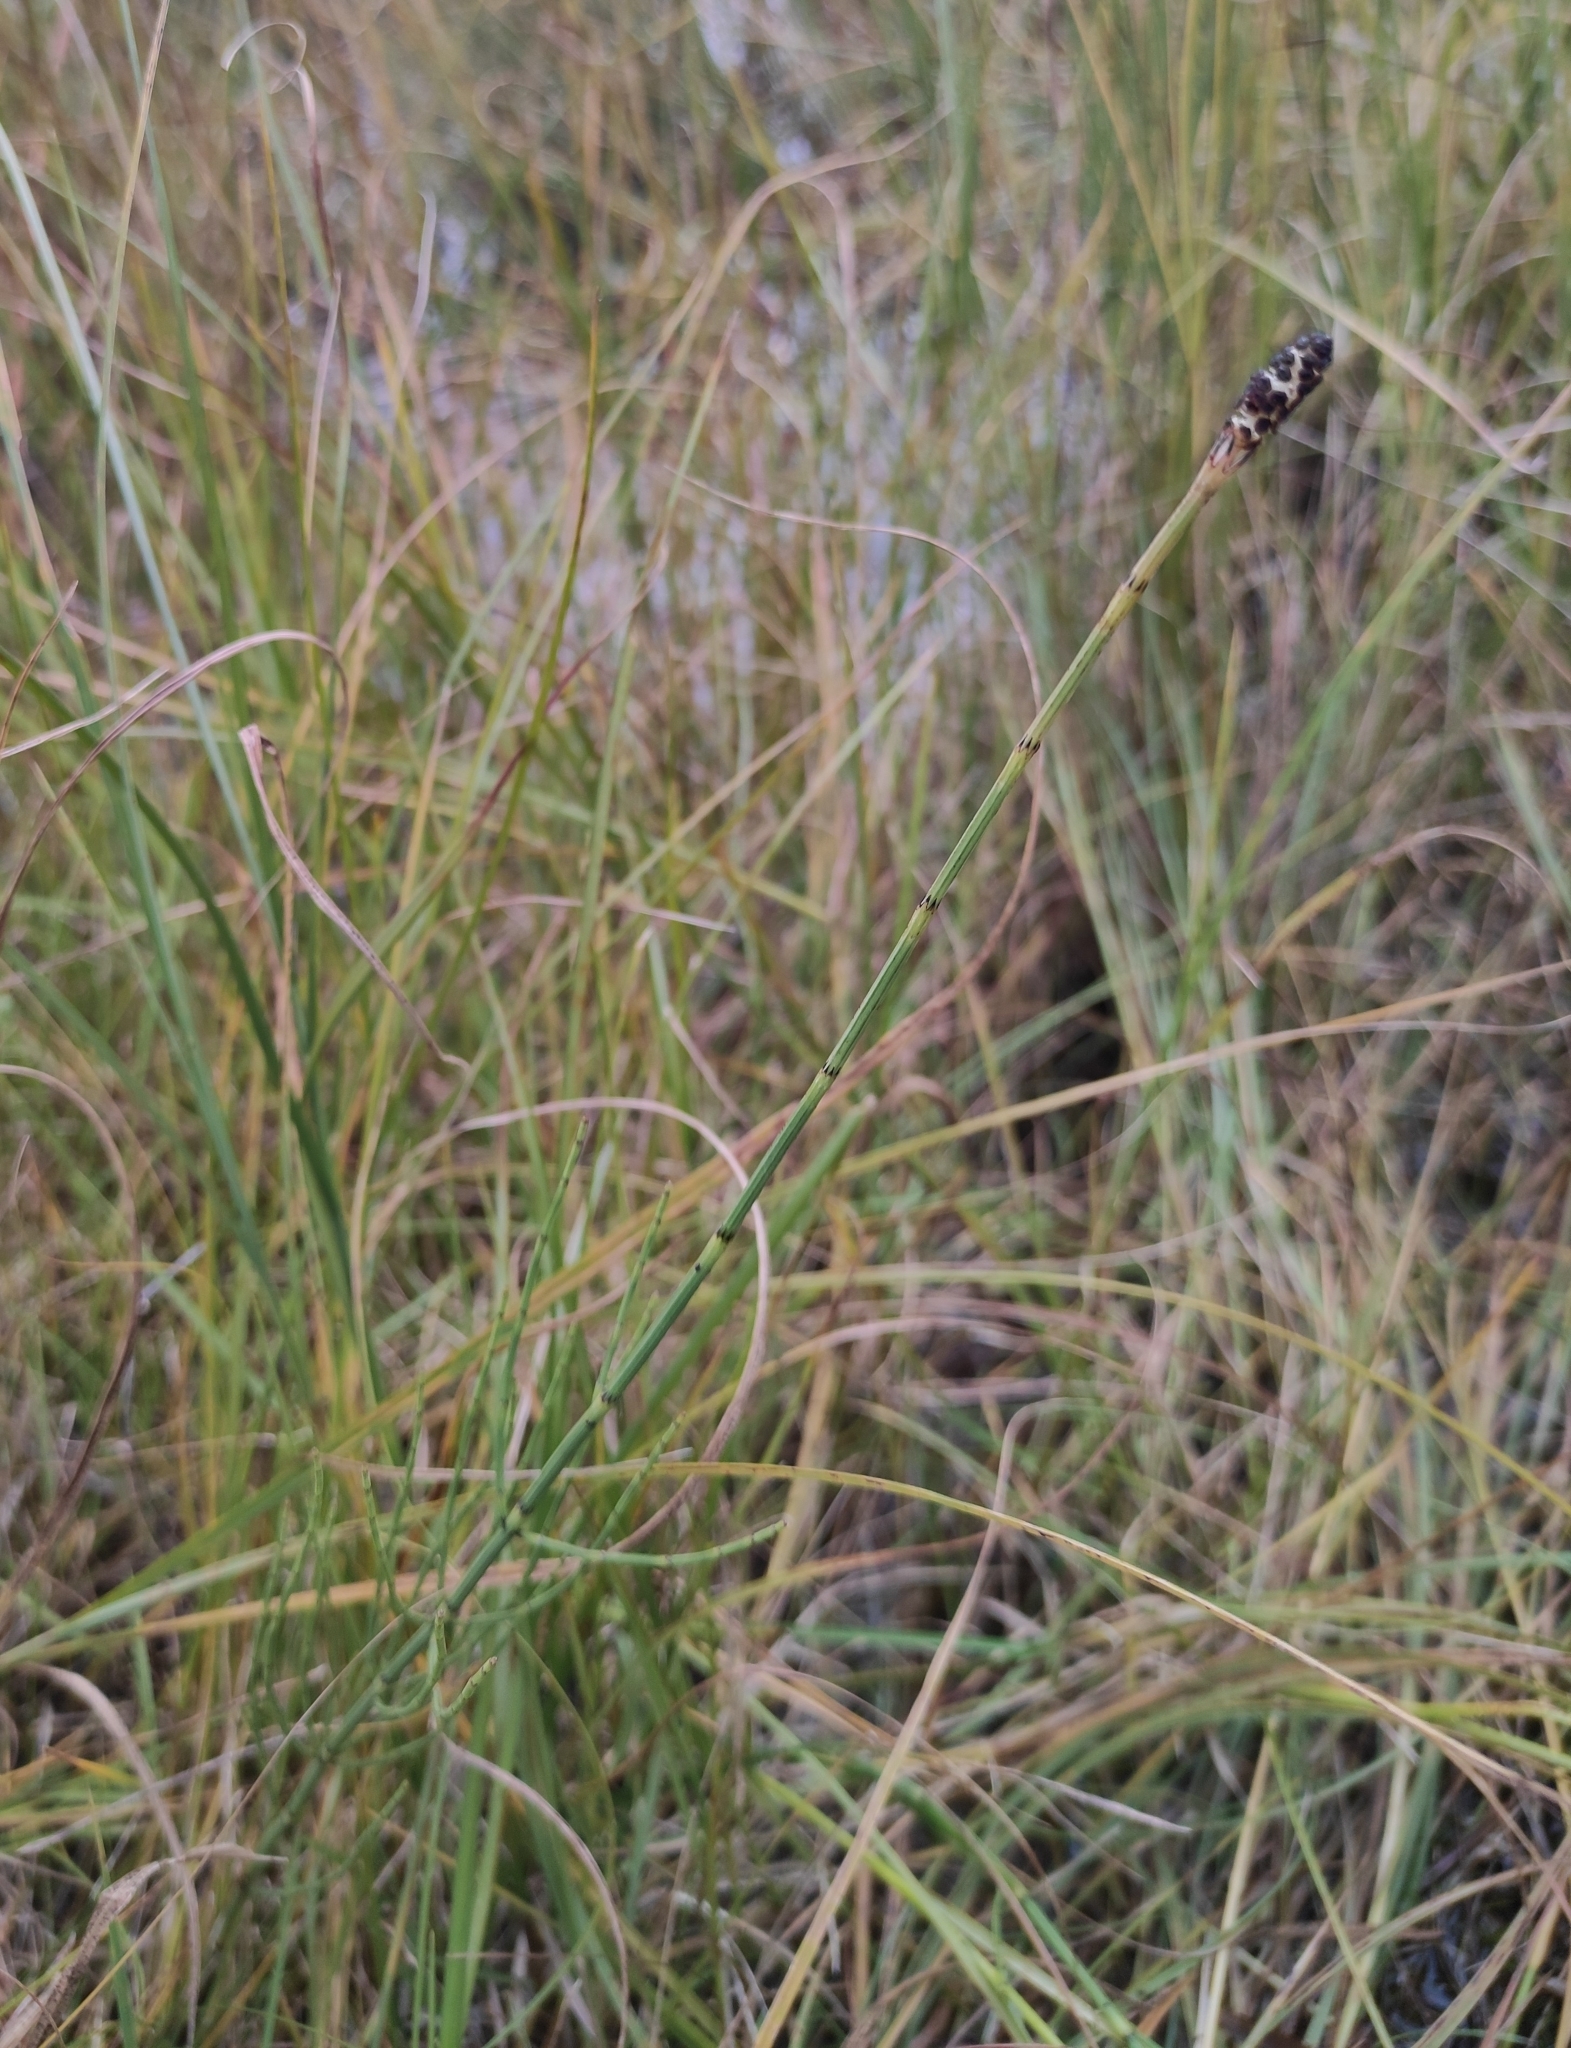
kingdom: Plantae
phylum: Tracheophyta
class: Polypodiopsida
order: Equisetales
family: Equisetaceae
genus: Equisetum
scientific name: Equisetum palustre
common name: Marsh horsetail
